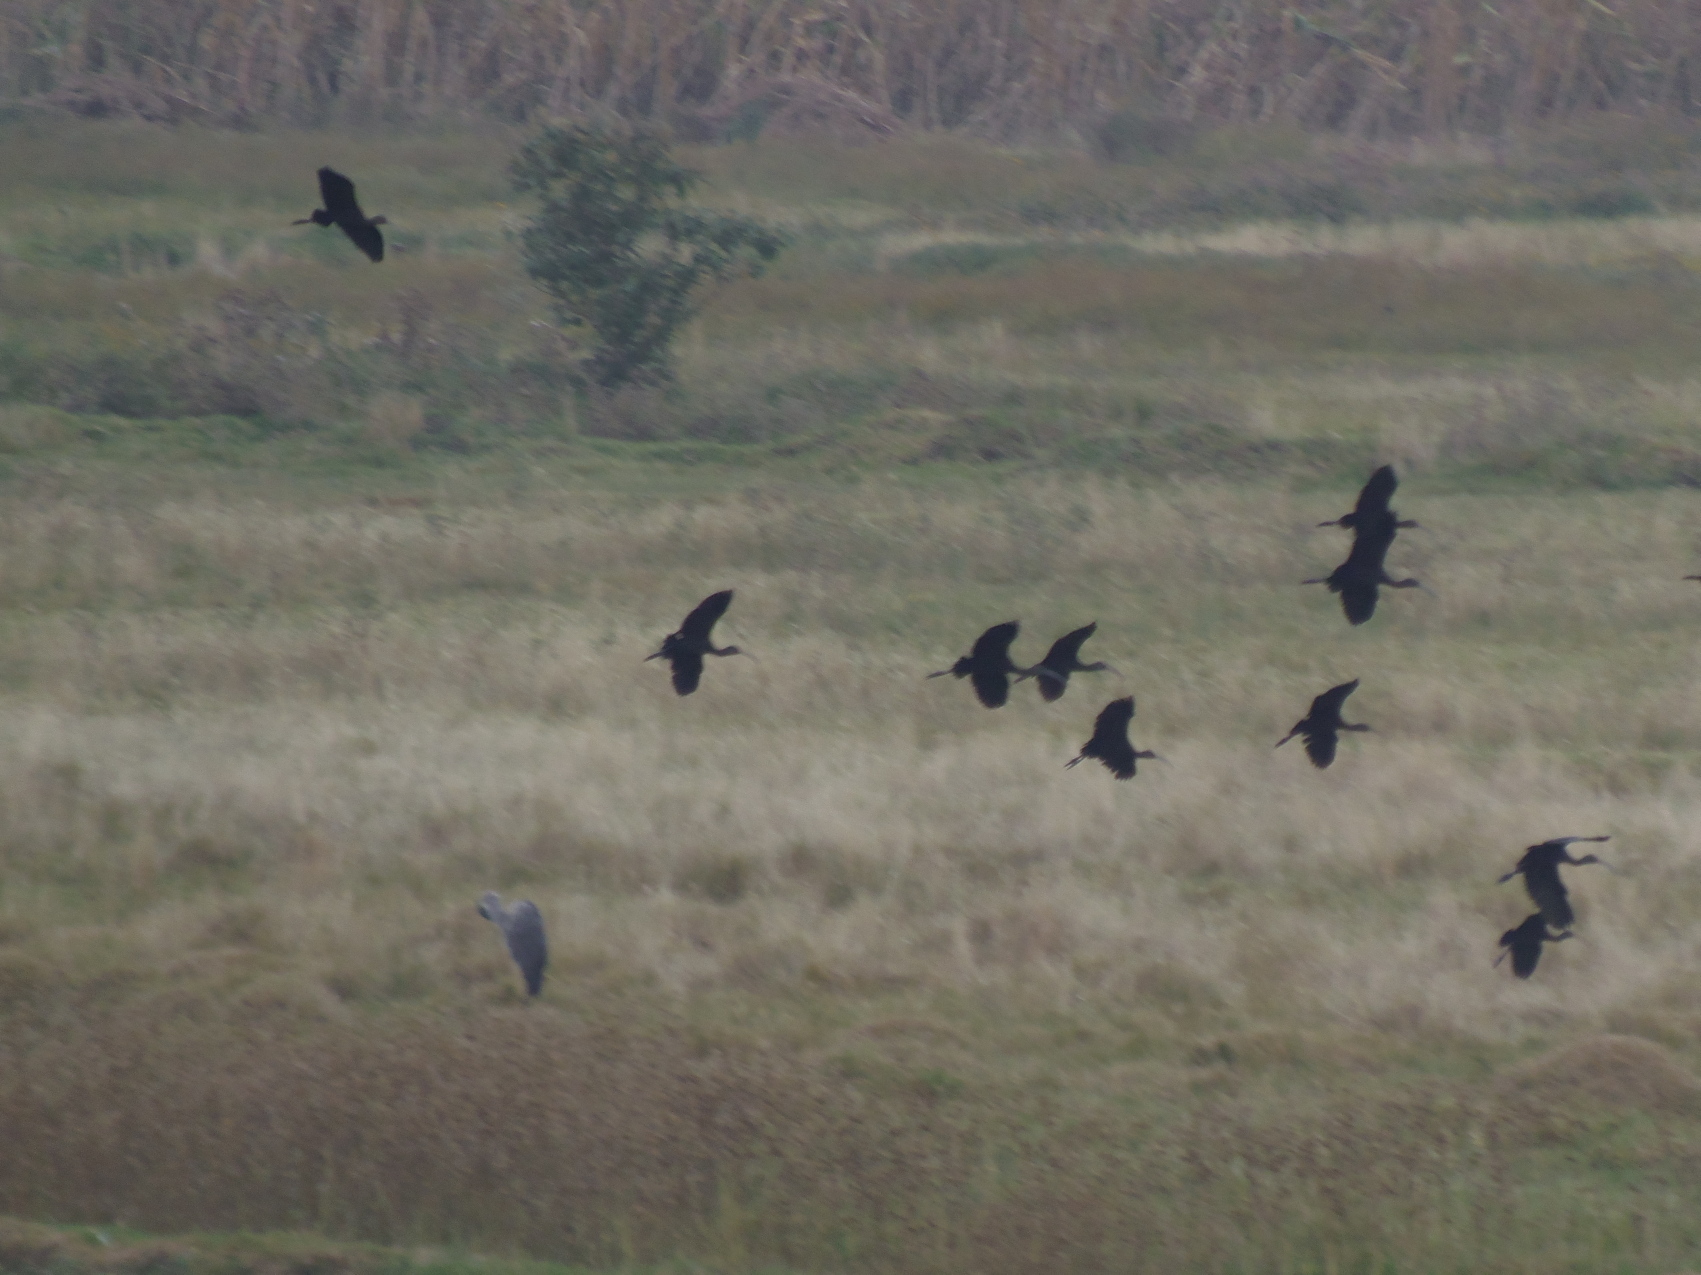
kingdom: Animalia
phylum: Chordata
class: Aves
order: Pelecaniformes
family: Threskiornithidae
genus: Plegadis
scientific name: Plegadis chihi
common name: White-faced ibis
